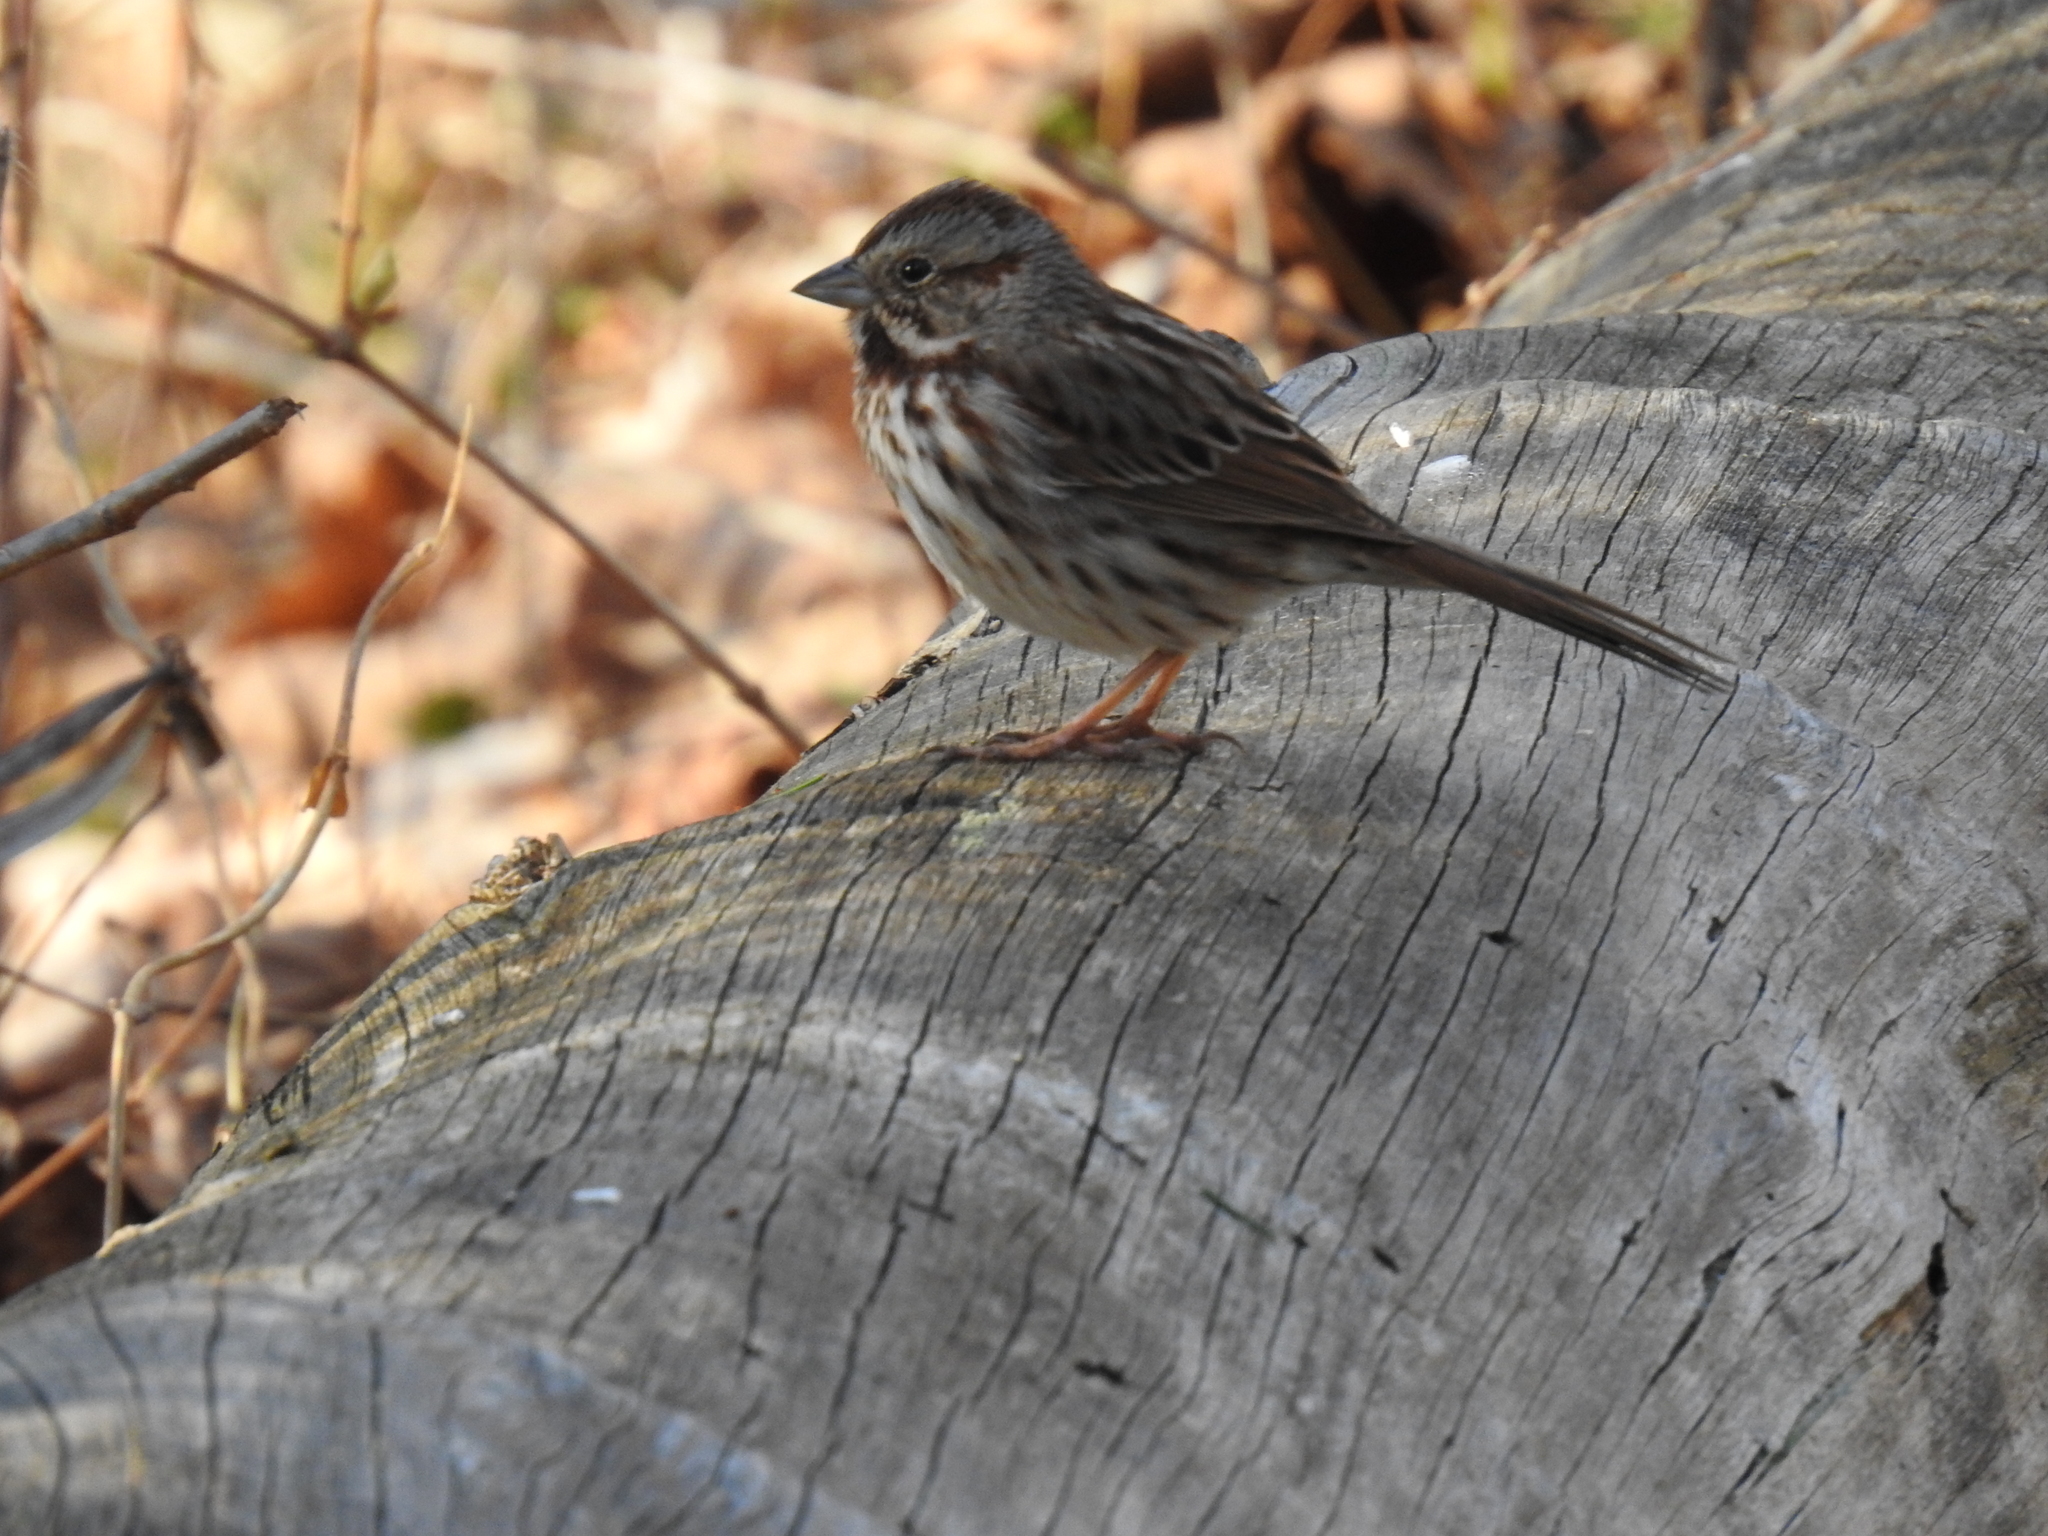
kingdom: Animalia
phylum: Chordata
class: Aves
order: Passeriformes
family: Passerellidae
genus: Melospiza
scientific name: Melospiza melodia
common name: Song sparrow
